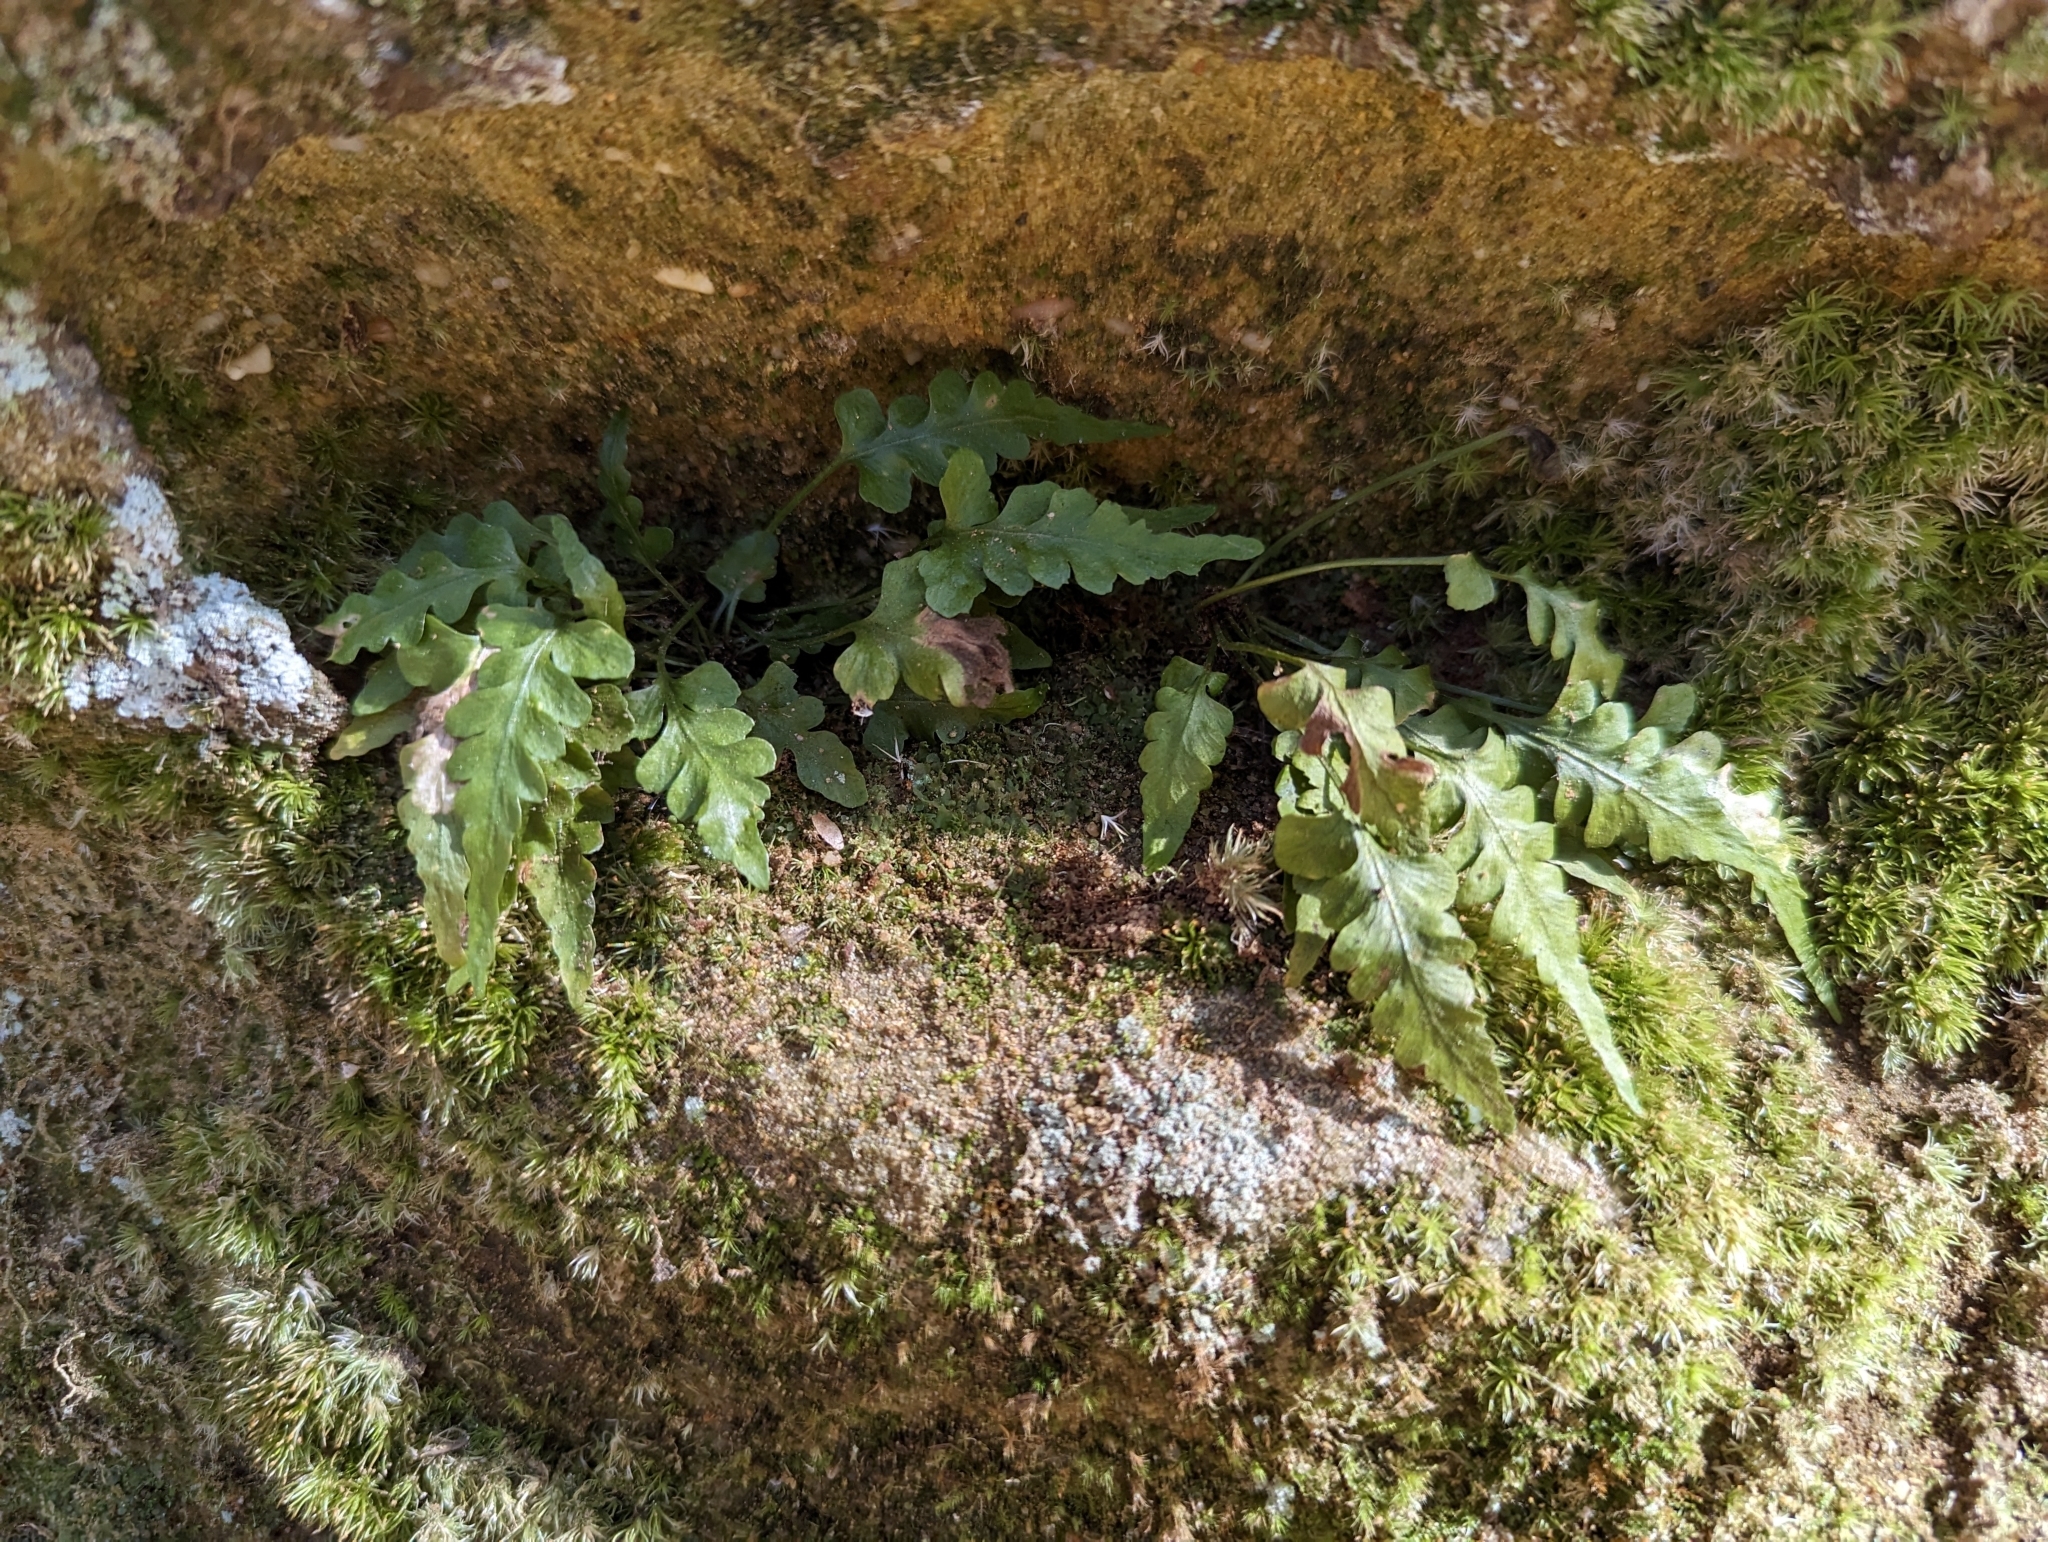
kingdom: Plantae
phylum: Tracheophyta
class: Polypodiopsida
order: Polypodiales
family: Aspleniaceae
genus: Asplenium
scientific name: Asplenium pinnatifidum
